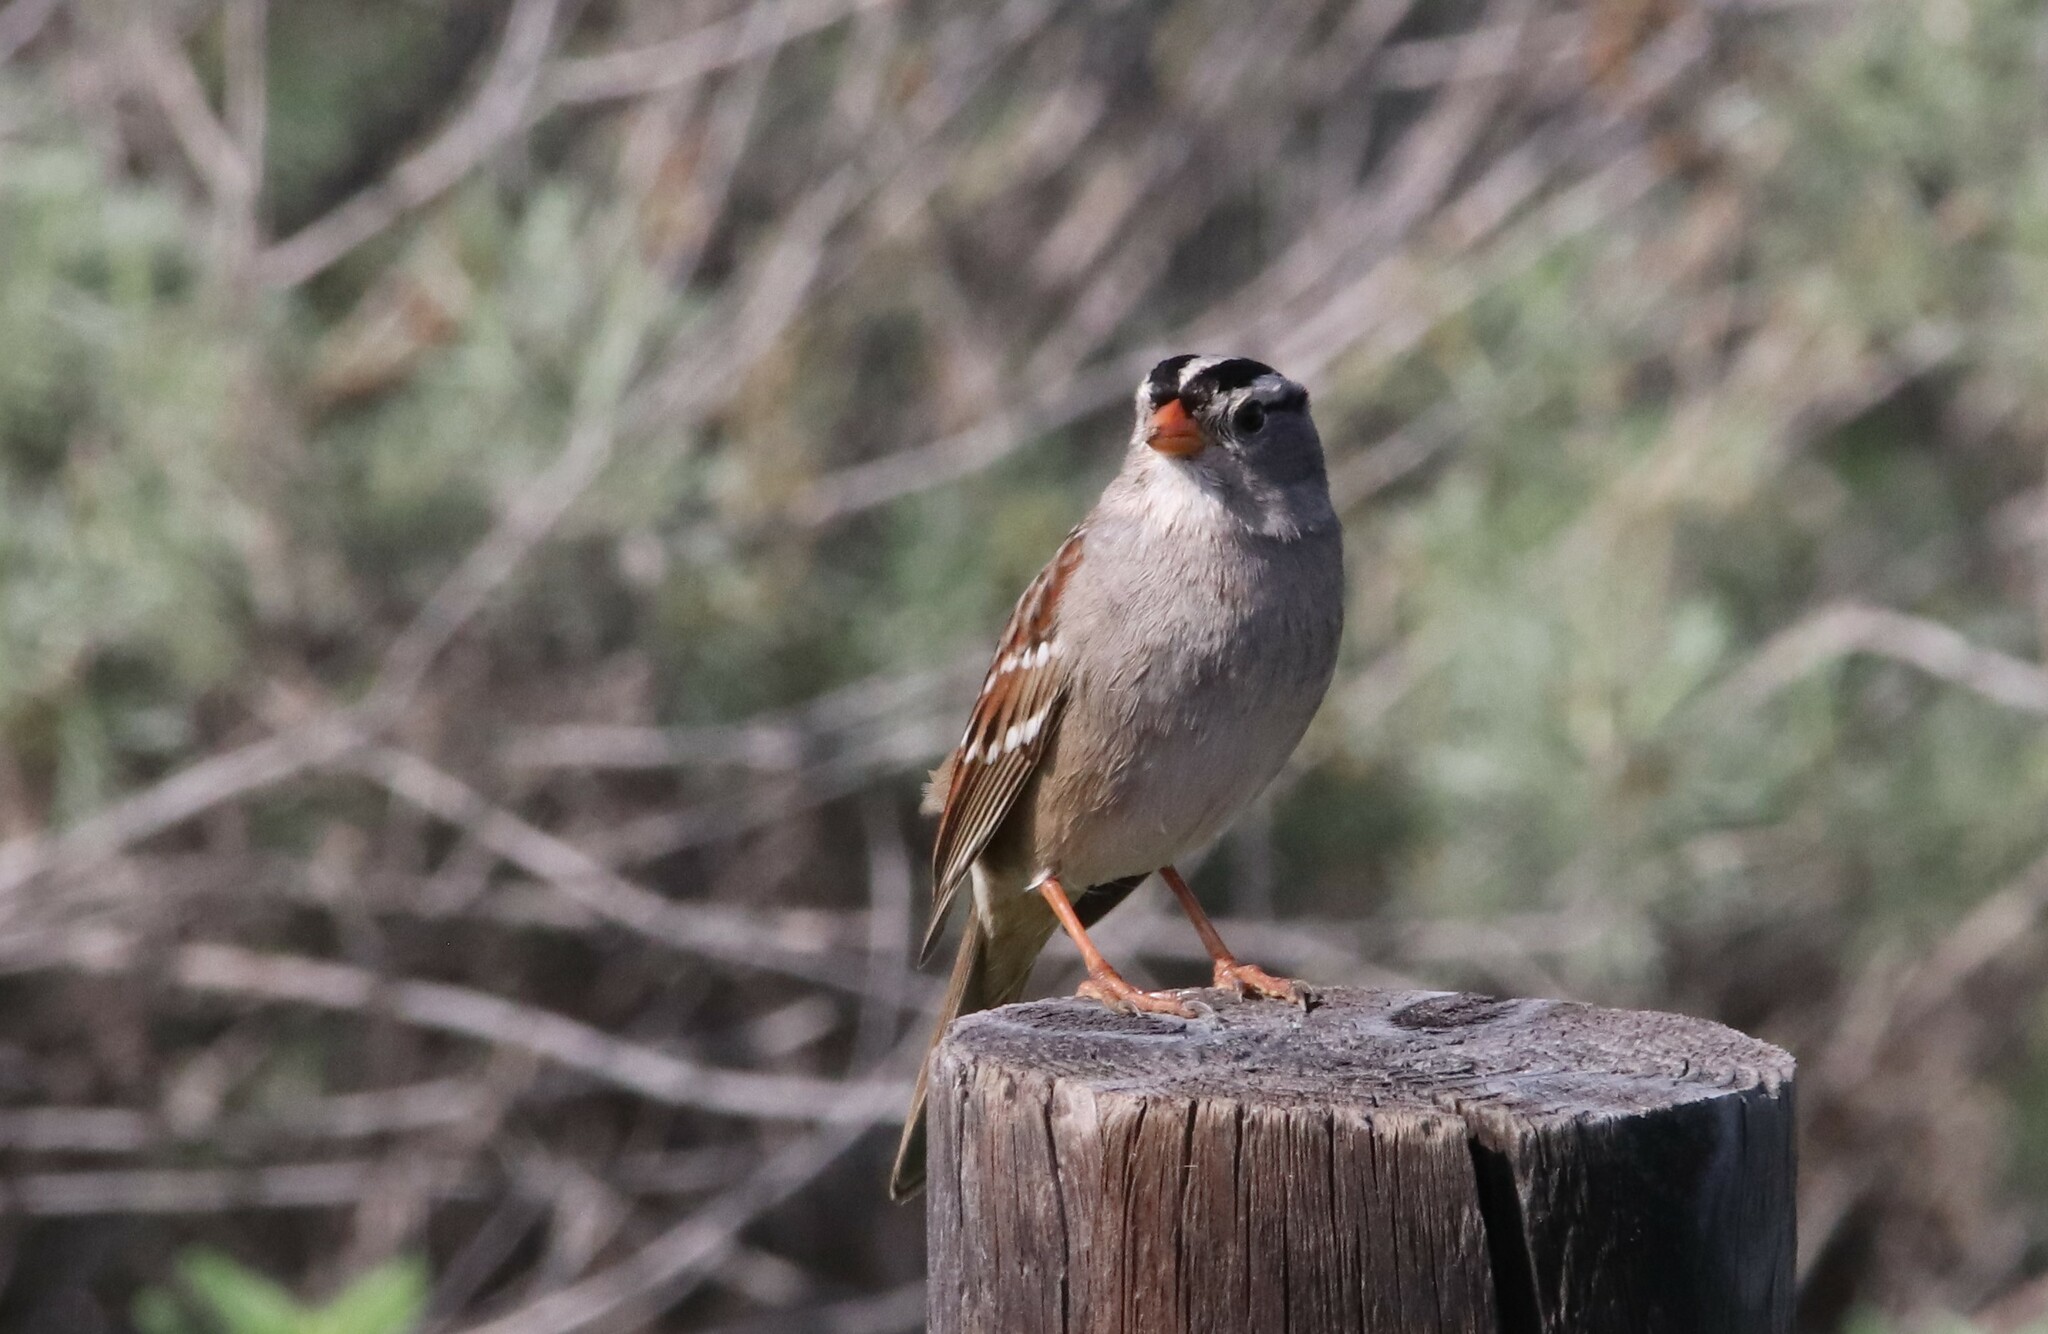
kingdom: Animalia
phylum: Chordata
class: Aves
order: Passeriformes
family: Passerellidae
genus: Zonotrichia
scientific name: Zonotrichia leucophrys
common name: White-crowned sparrow
